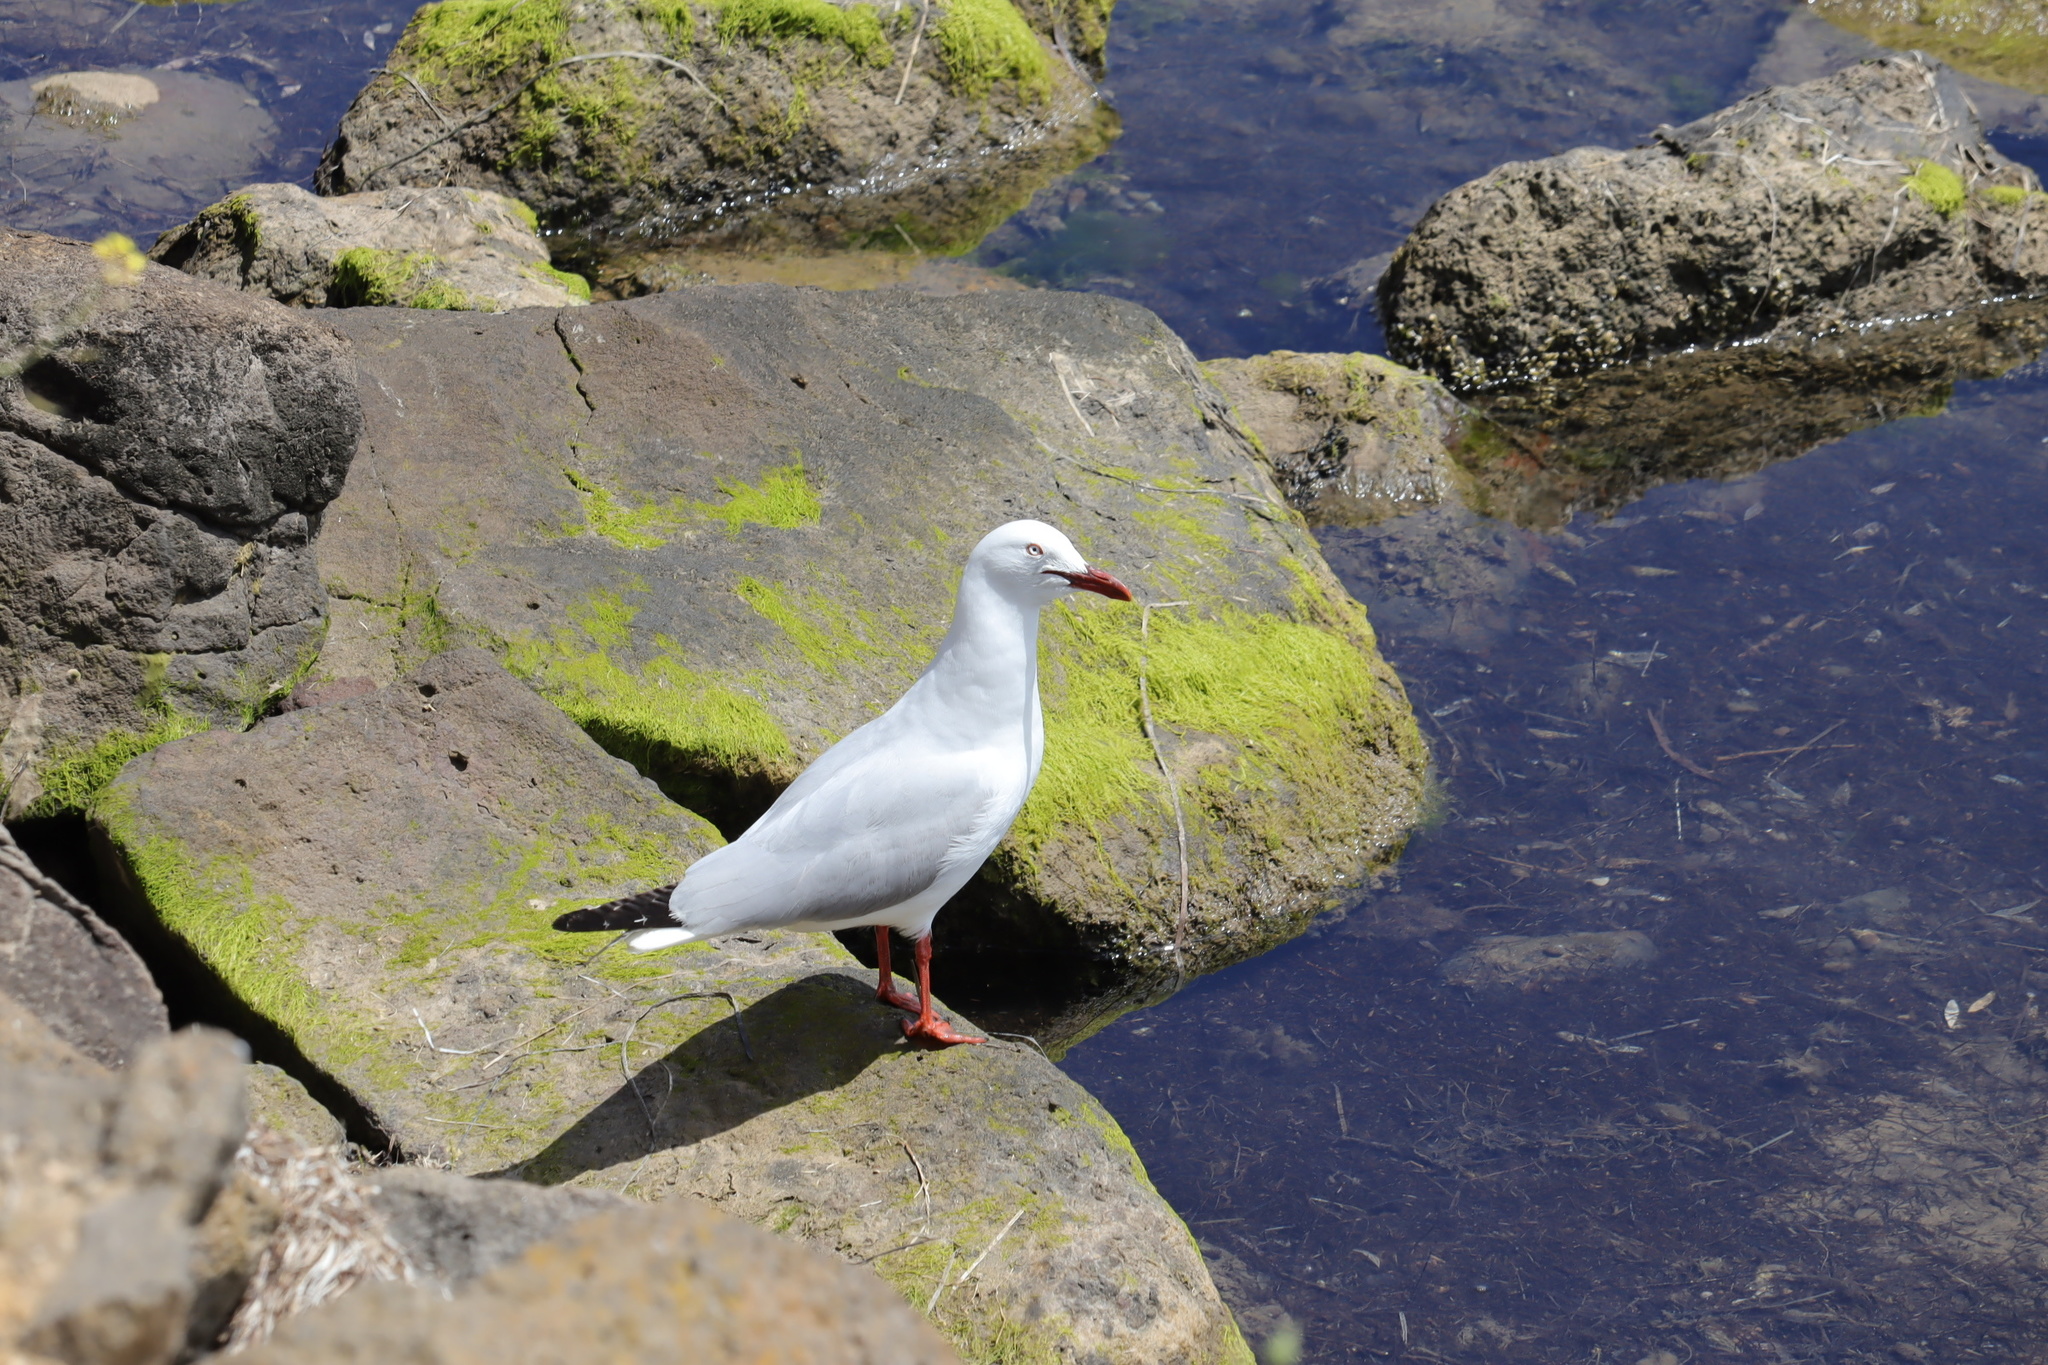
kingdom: Animalia
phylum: Chordata
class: Aves
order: Charadriiformes
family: Laridae
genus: Chroicocephalus
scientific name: Chroicocephalus novaehollandiae
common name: Silver gull
